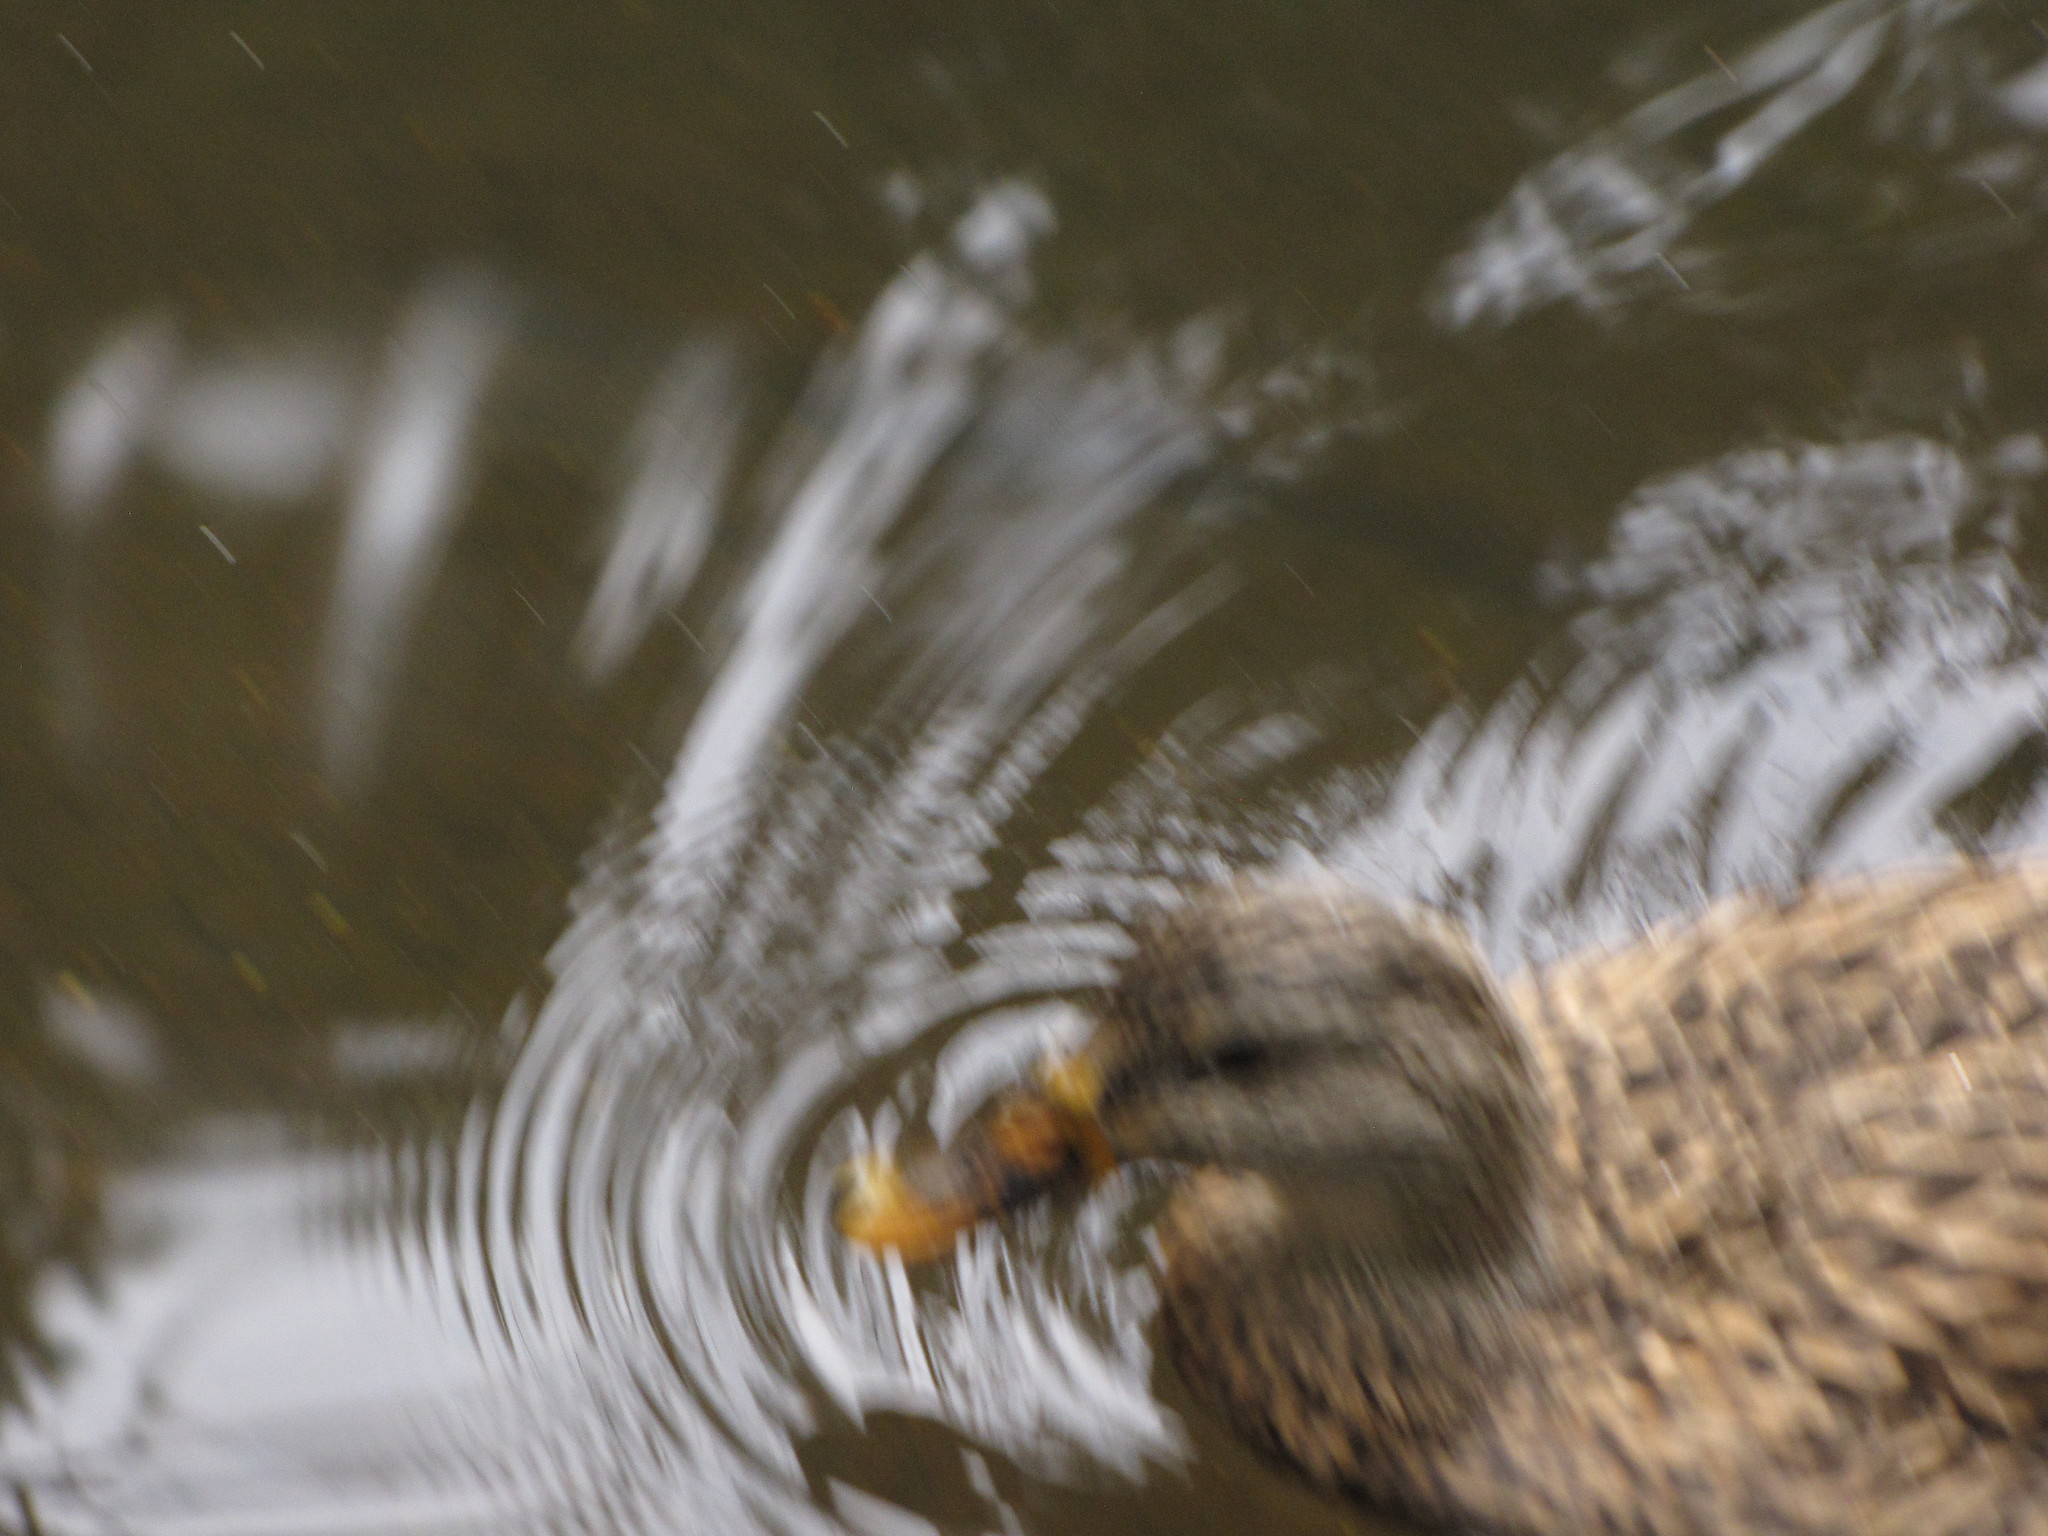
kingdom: Animalia
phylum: Chordata
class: Aves
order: Anseriformes
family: Anatidae
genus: Anas
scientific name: Anas platyrhynchos
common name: Mallard
